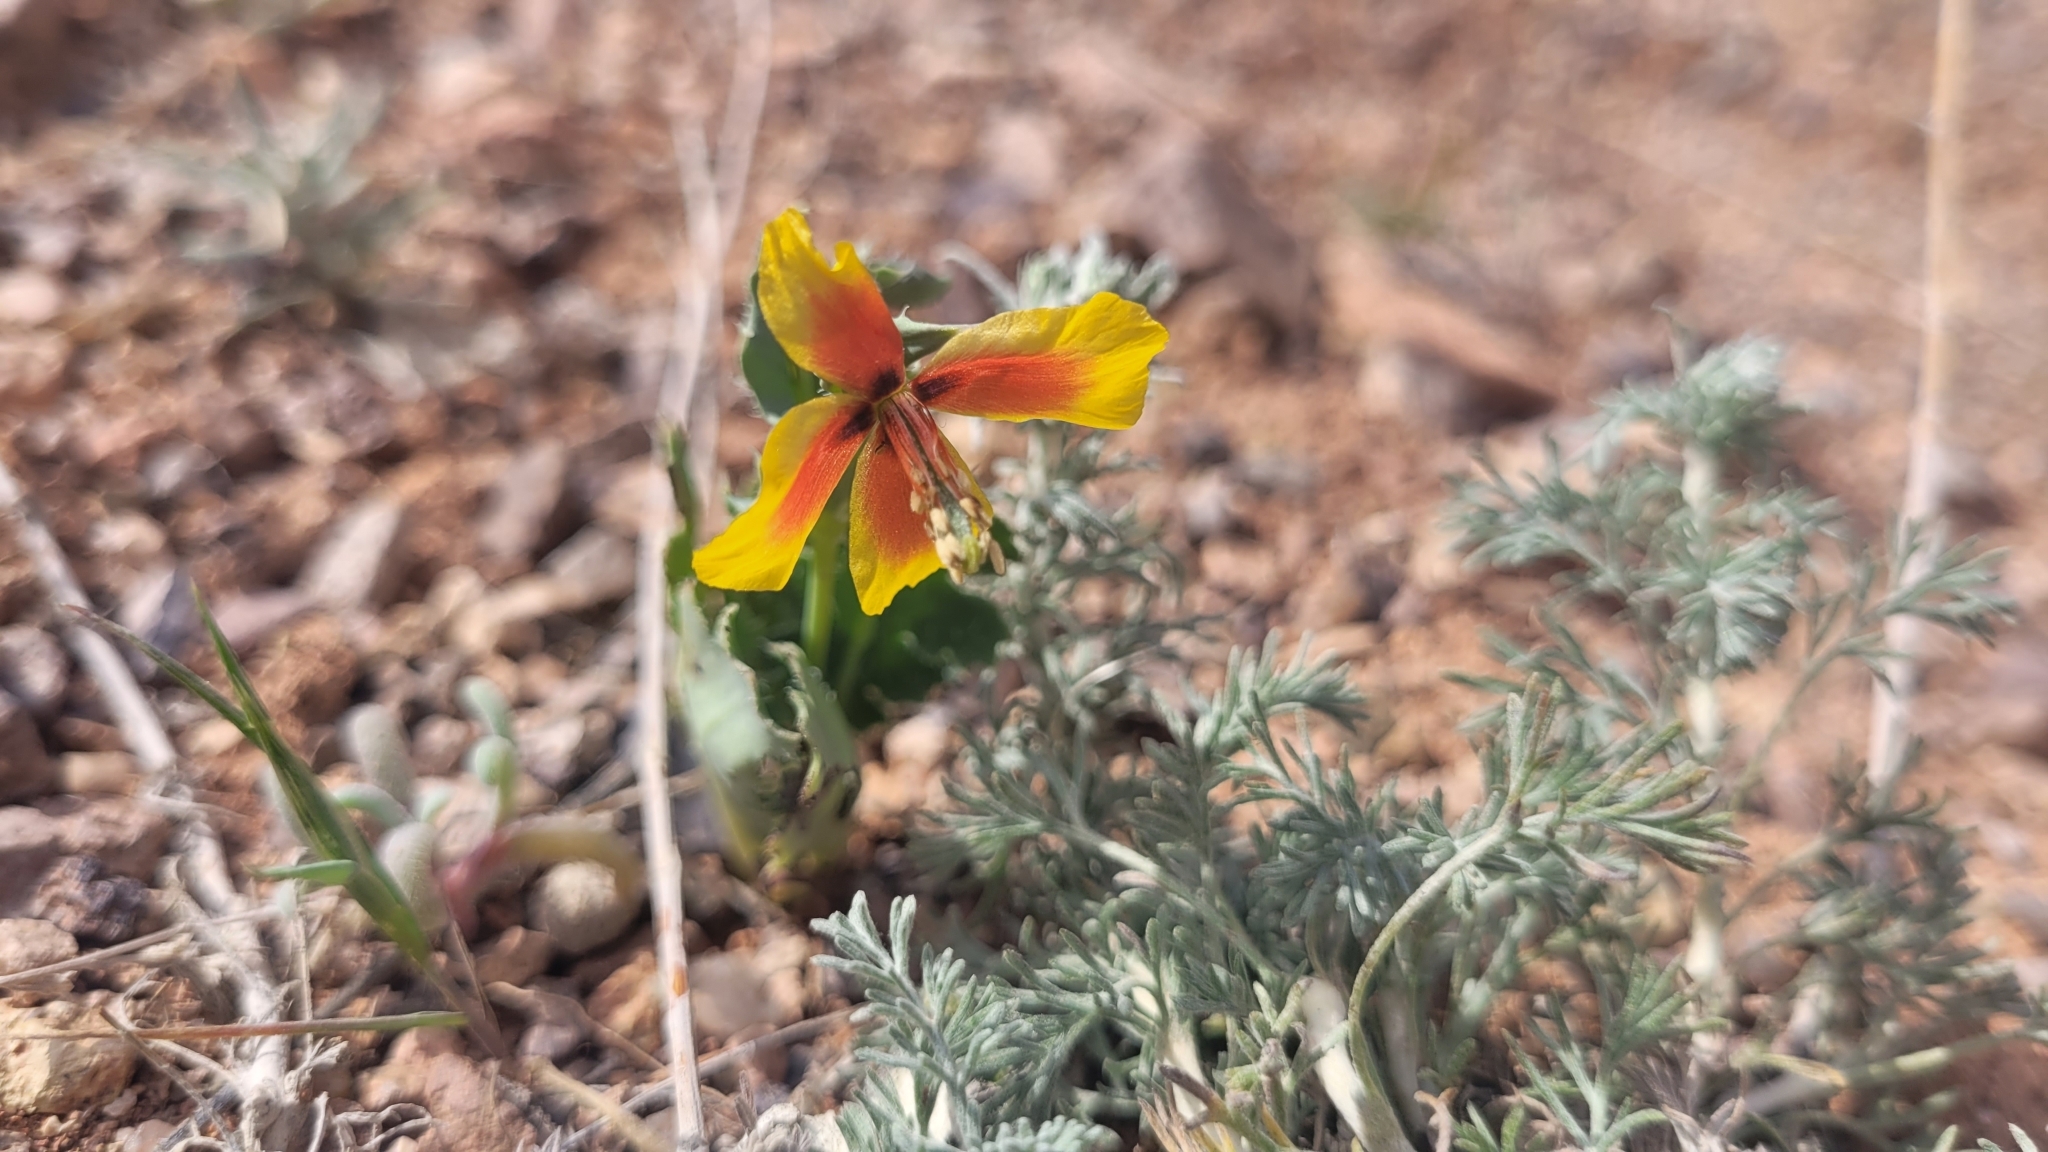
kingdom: Plantae
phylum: Tracheophyta
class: Magnoliopsida
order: Ranunculales
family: Papaveraceae
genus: Glaucium
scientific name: Glaucium elegans
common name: Annual horned-poppy
